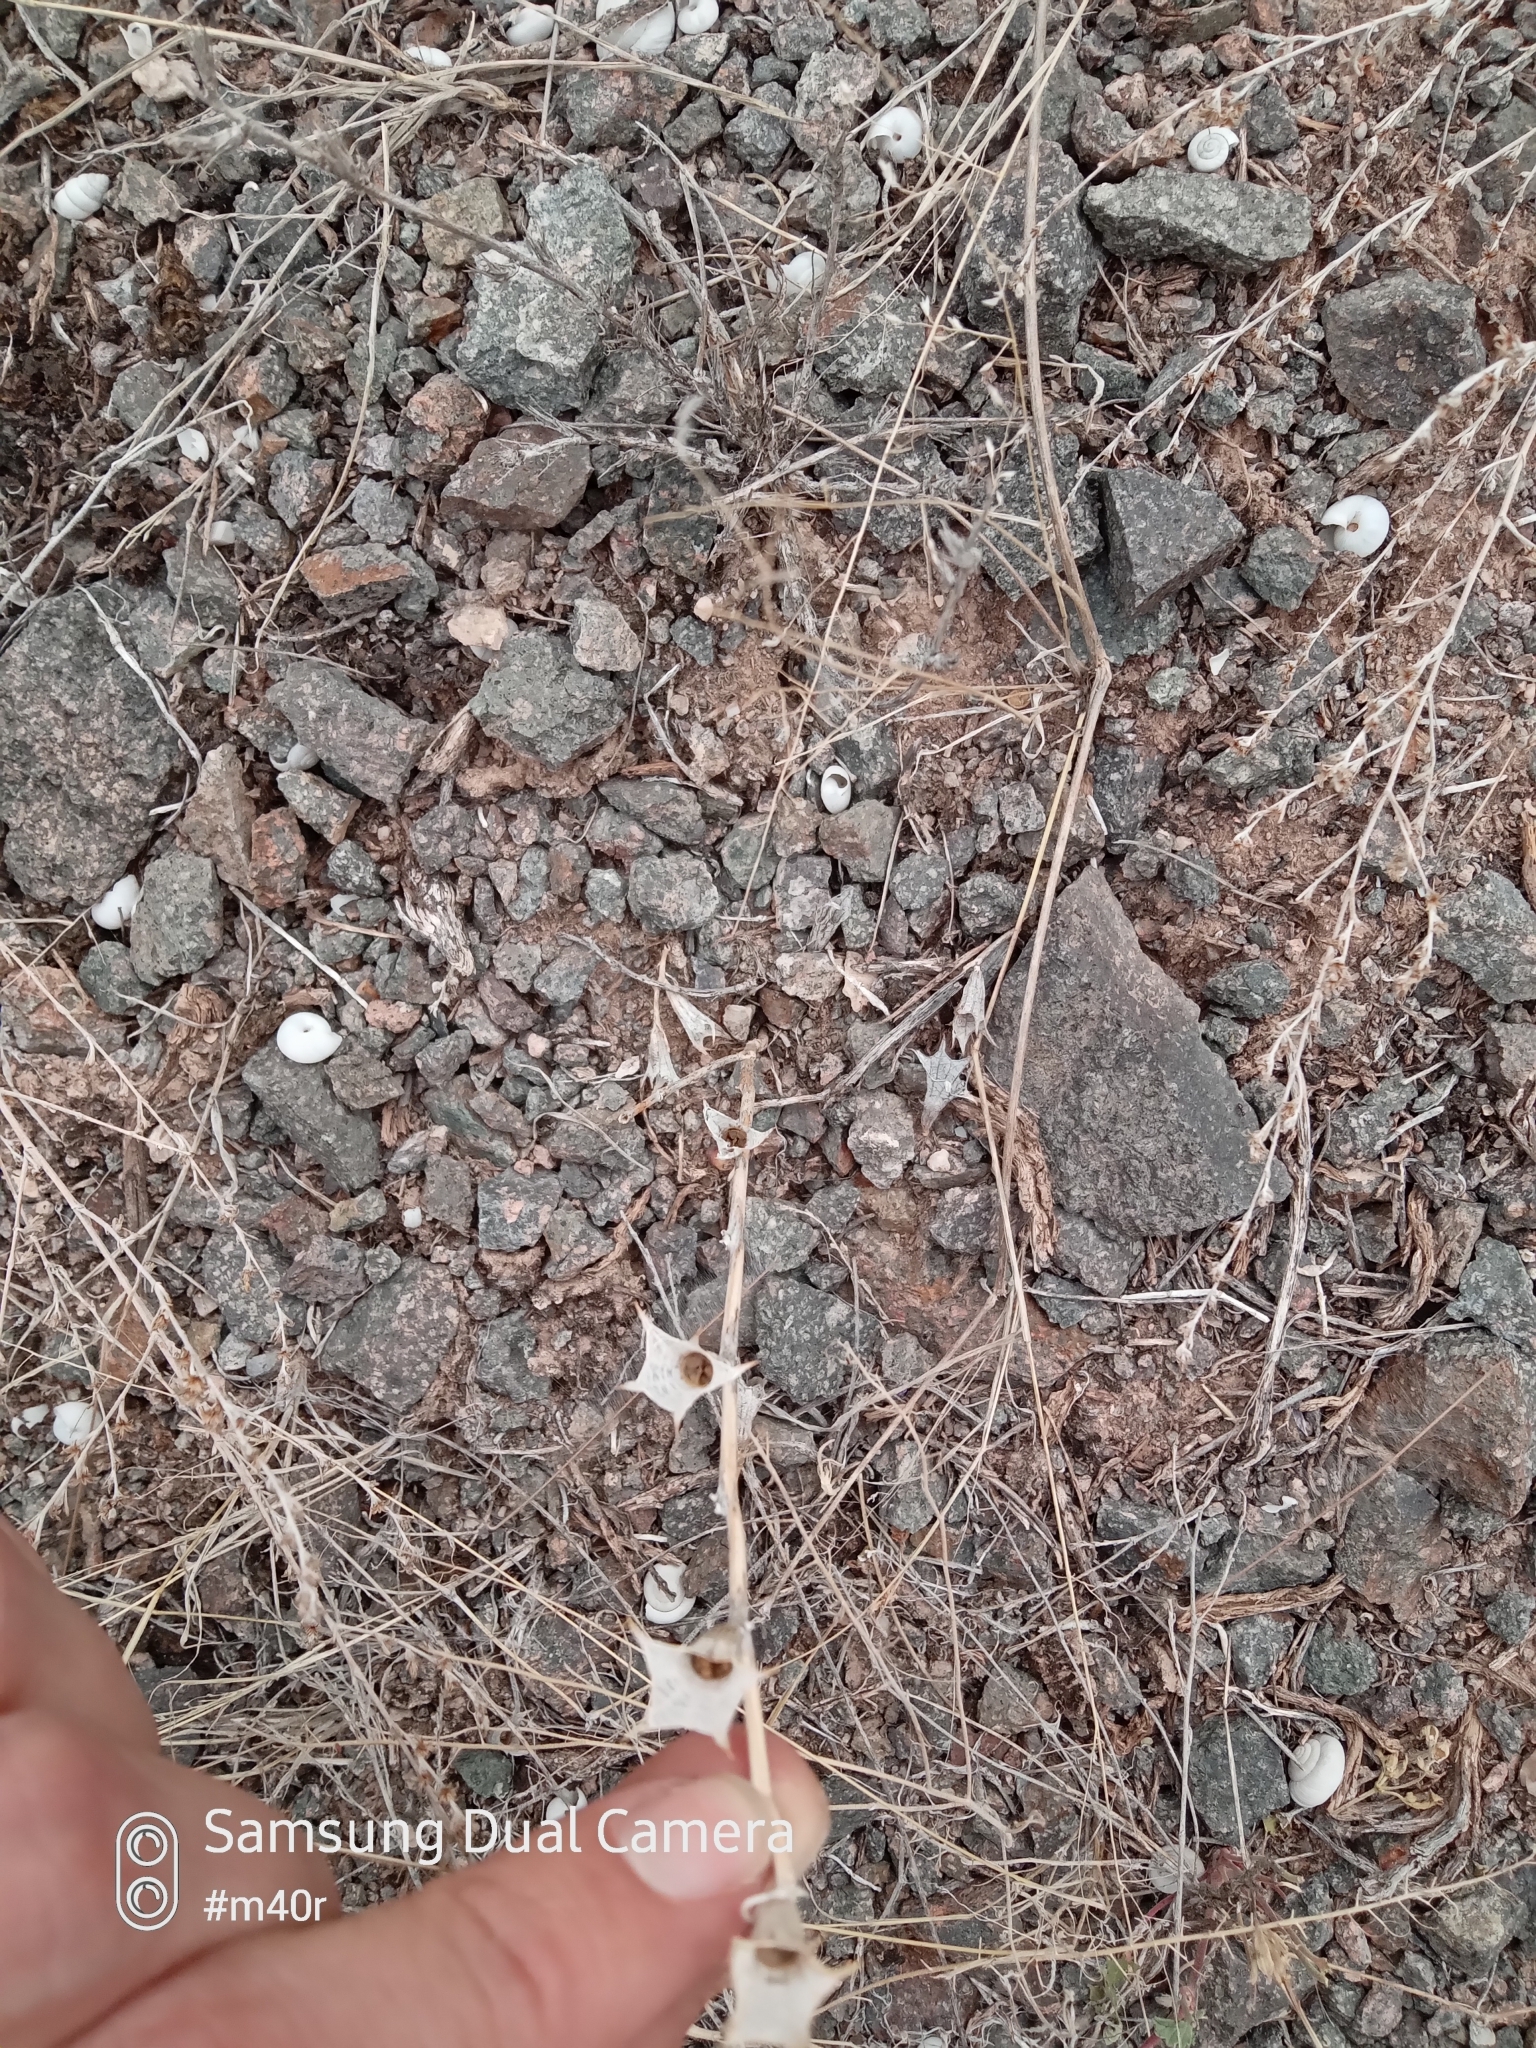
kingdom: Plantae
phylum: Tracheophyta
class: Magnoliopsida
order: Solanales
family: Solanaceae
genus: Hyoscyamus
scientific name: Hyoscyamus pusillus
